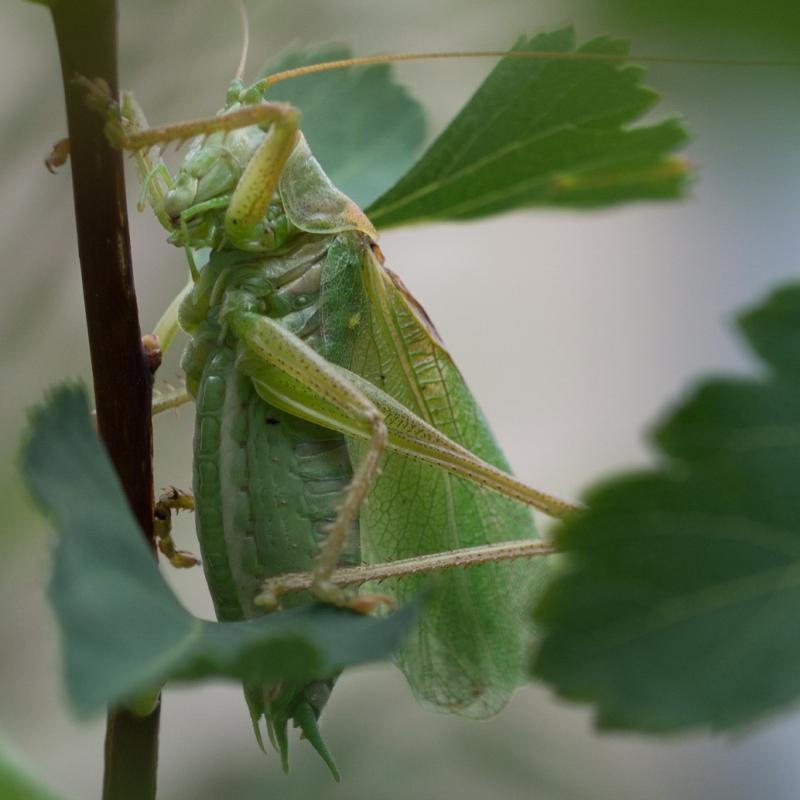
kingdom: Animalia
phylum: Arthropoda
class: Insecta
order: Orthoptera
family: Tettigoniidae
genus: Tettigonia
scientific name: Tettigonia cantans
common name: Upland green bush-cricket
